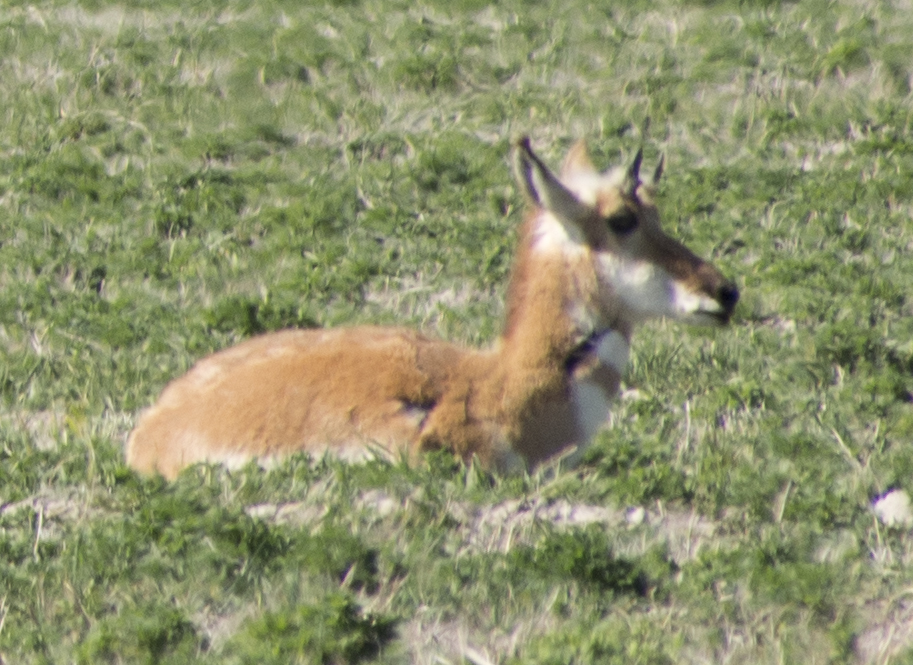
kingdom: Animalia
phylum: Chordata
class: Mammalia
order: Artiodactyla
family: Antilocapridae
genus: Antilocapra
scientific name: Antilocapra americana
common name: Pronghorn
